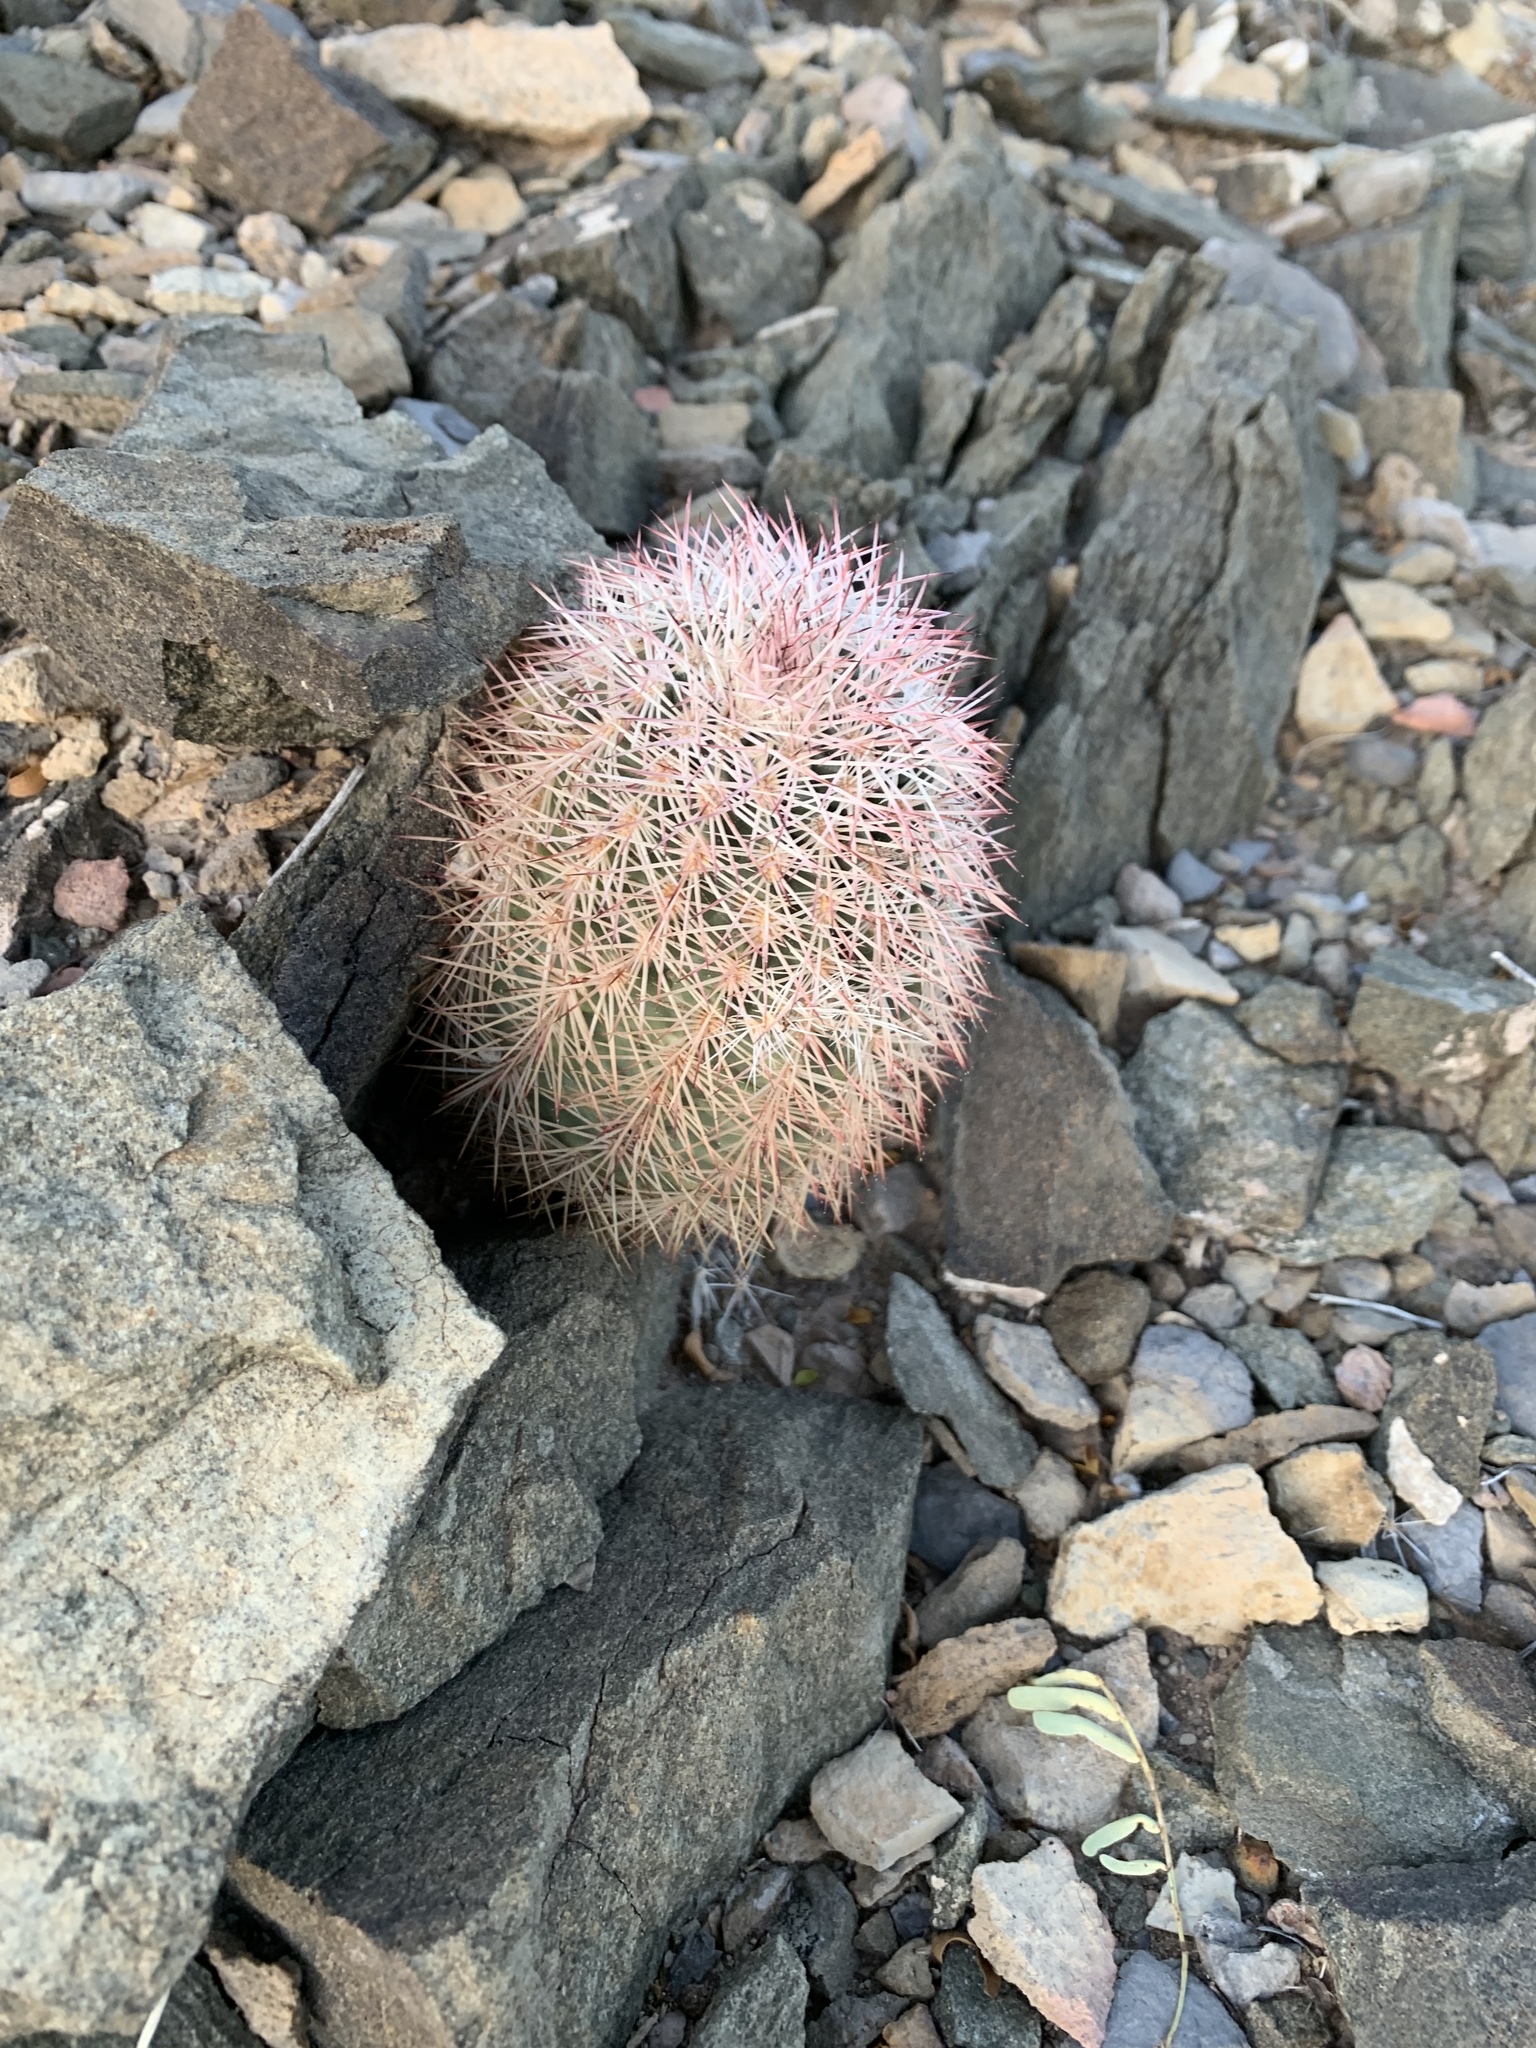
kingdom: Plantae
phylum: Tracheophyta
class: Magnoliopsida
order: Caryophyllales
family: Cactaceae
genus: Echinocereus
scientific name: Echinocereus dasyacanthus
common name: Spiny hedgehog cactus
